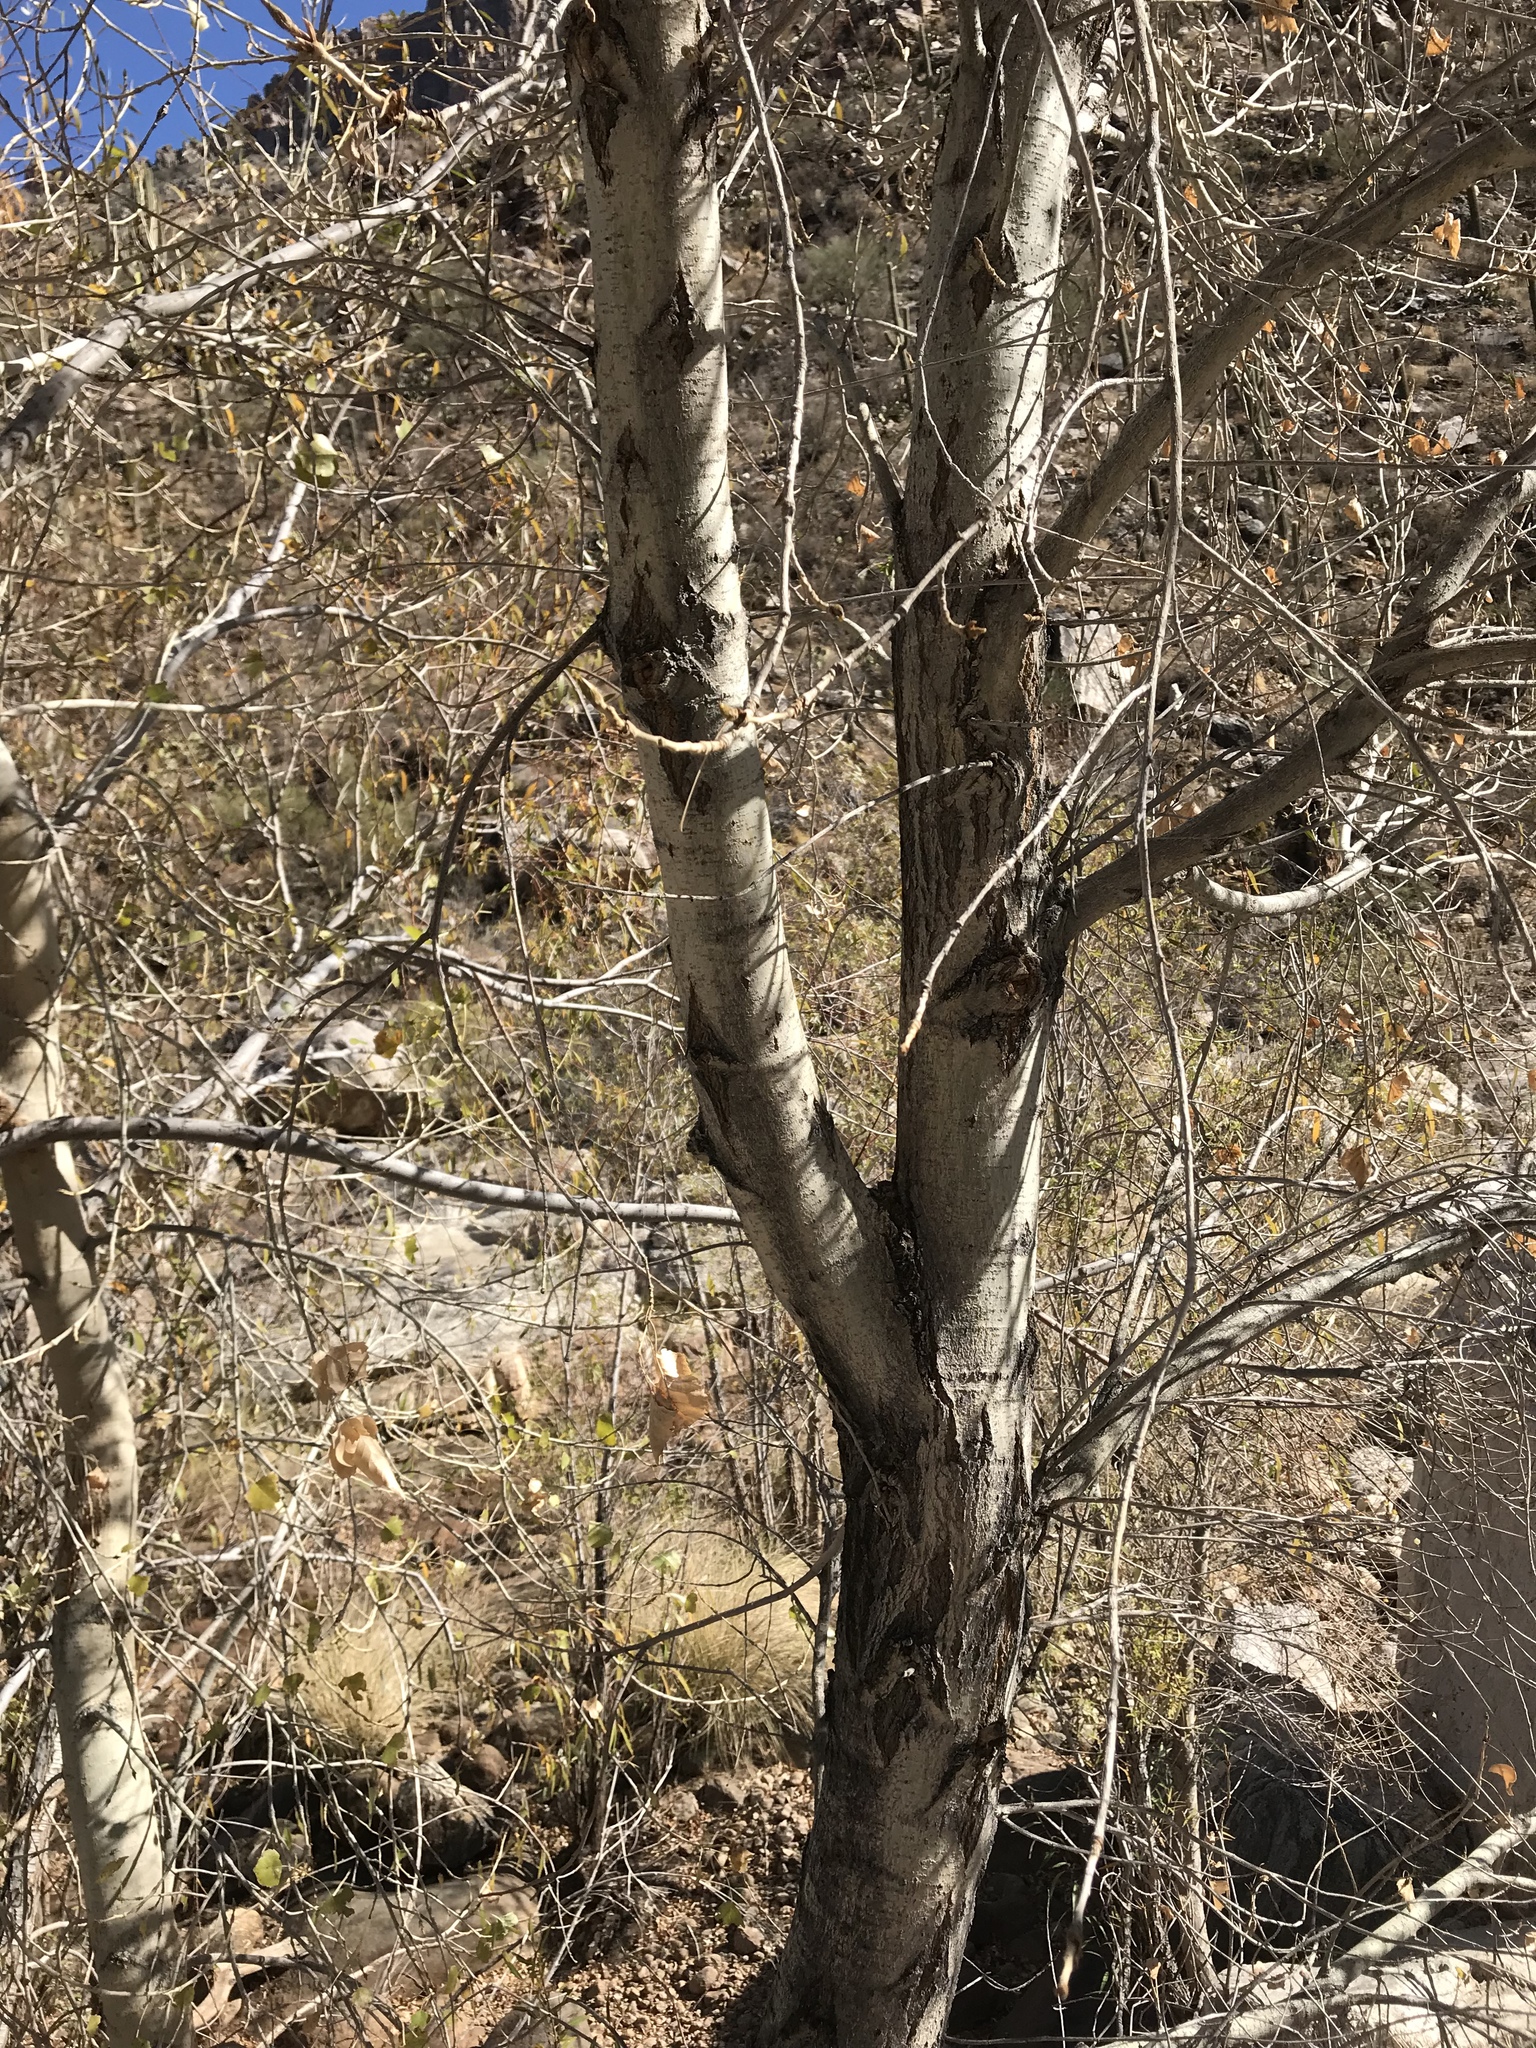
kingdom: Plantae
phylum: Tracheophyta
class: Magnoliopsida
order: Malpighiales
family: Salicaceae
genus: Populus
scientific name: Populus fremontii
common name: Fremont's cottonwood
